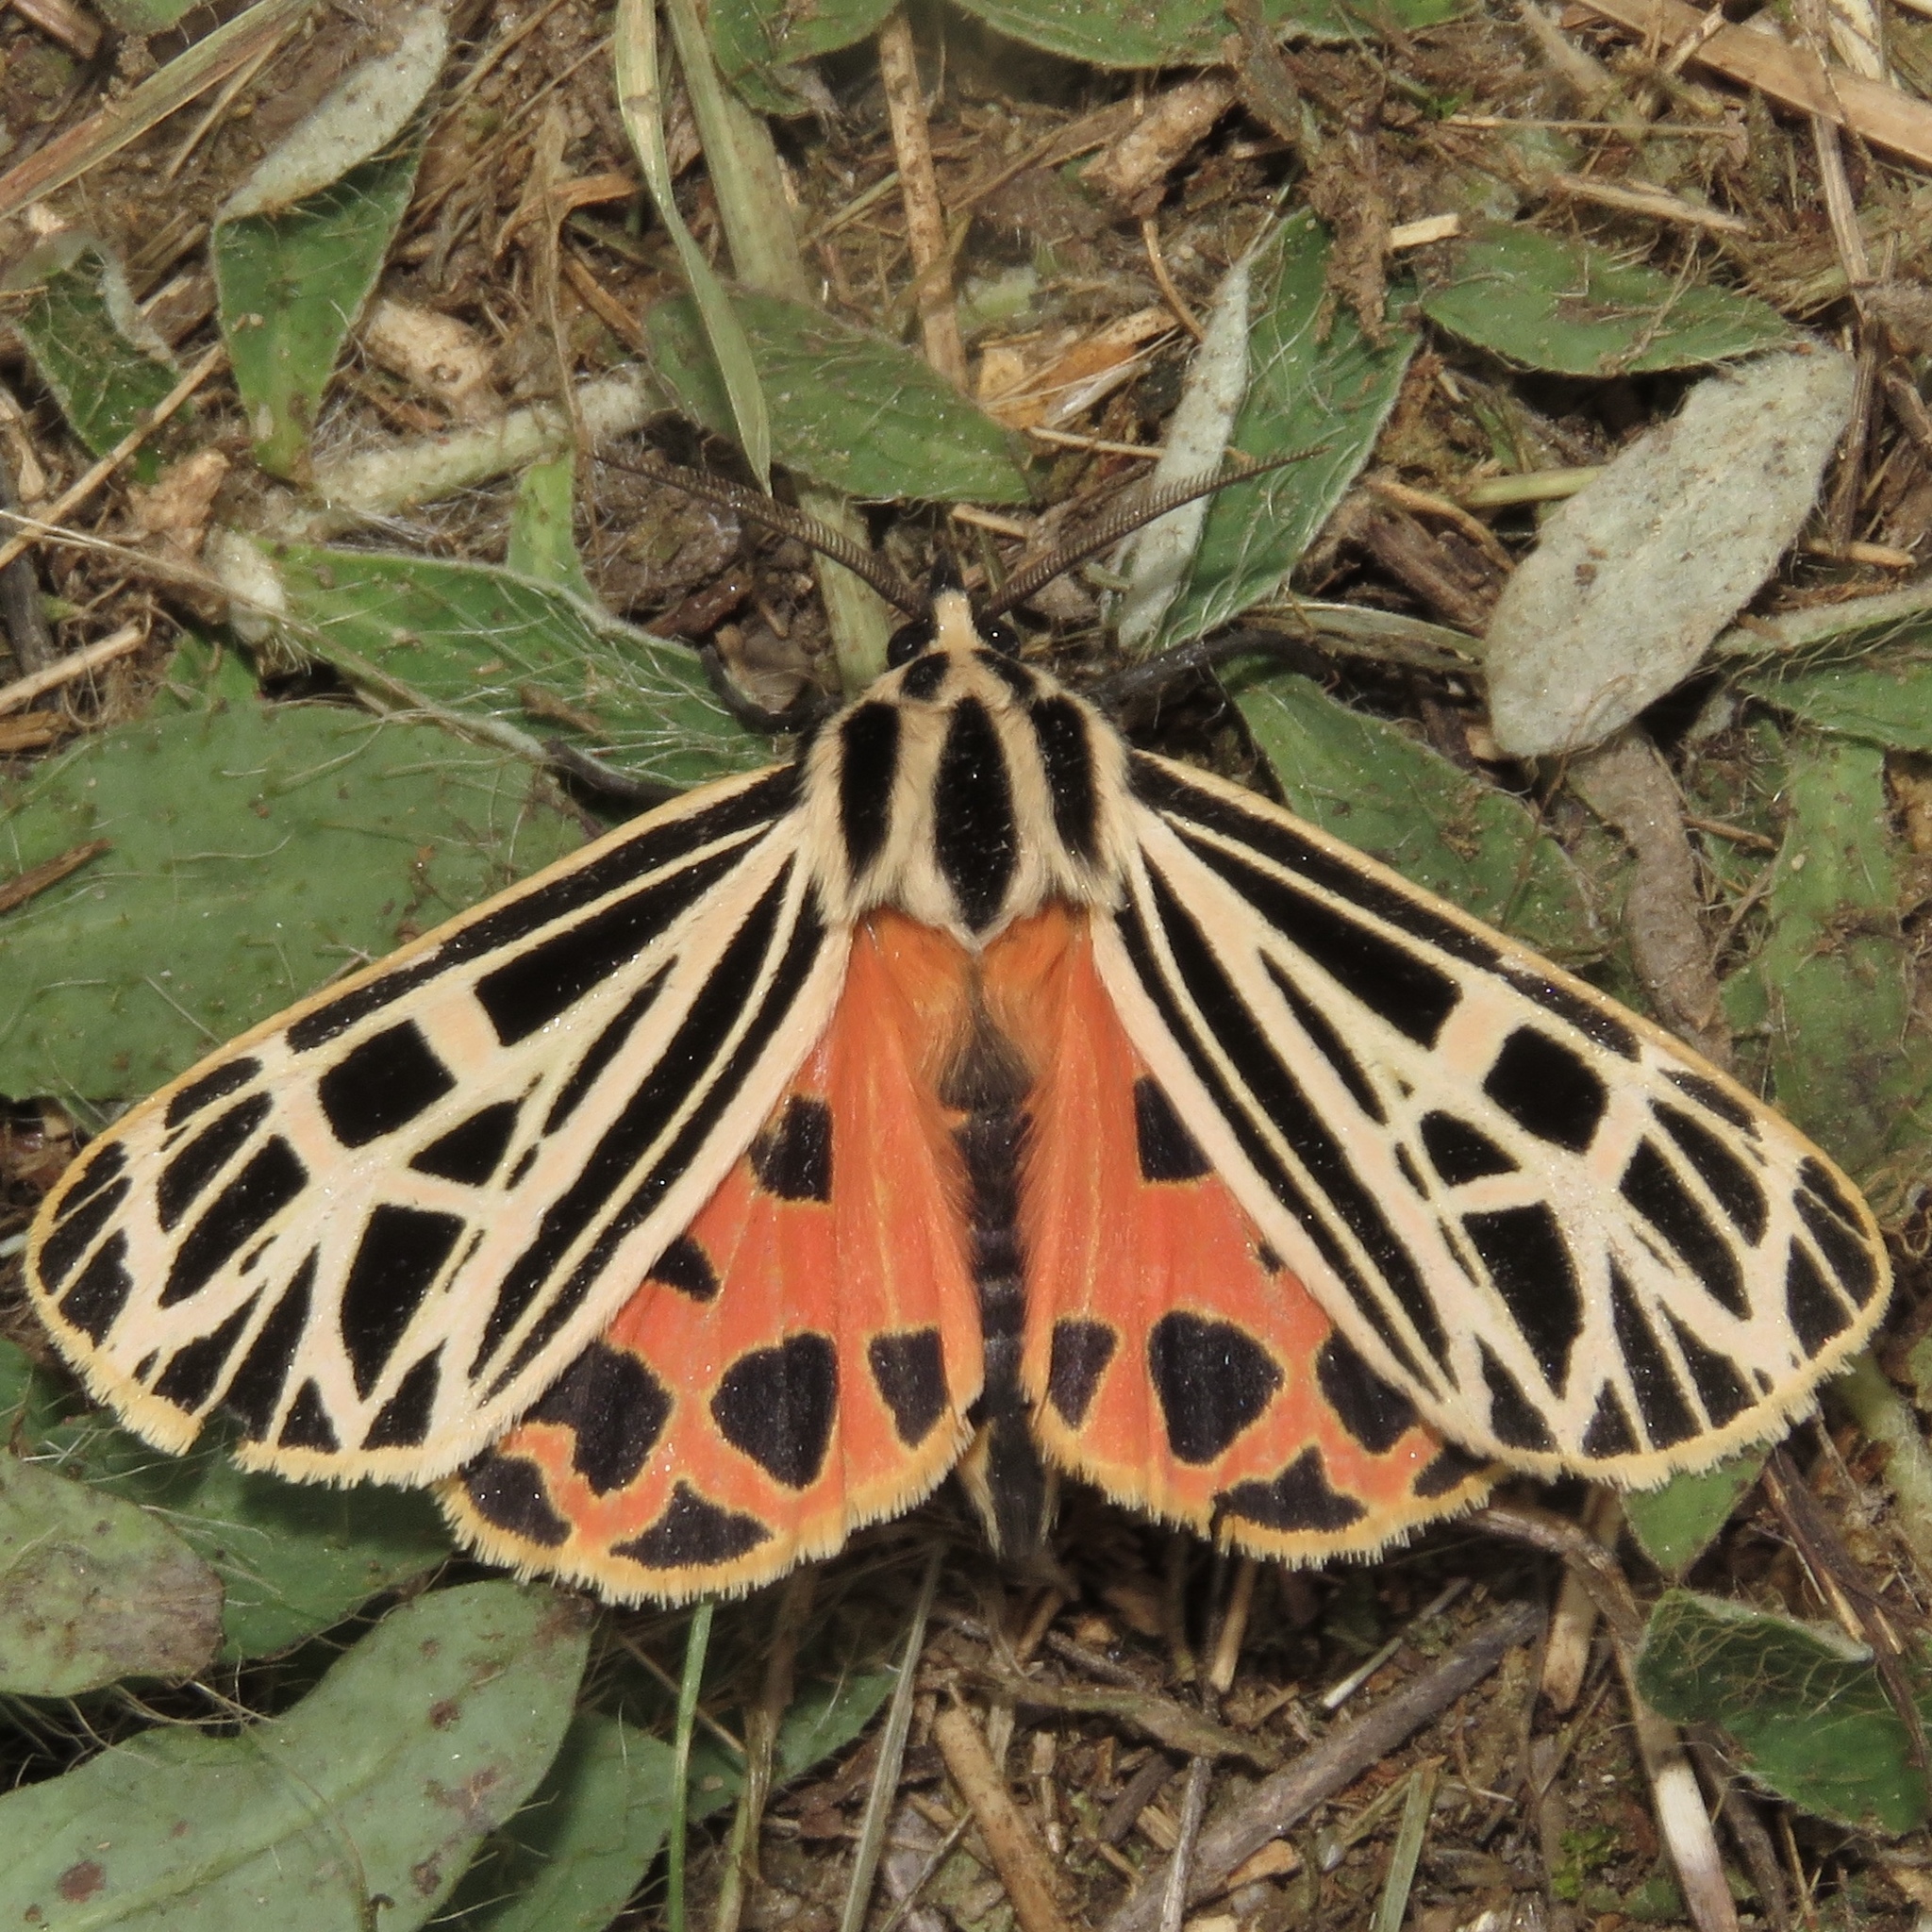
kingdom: Animalia
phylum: Arthropoda
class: Insecta
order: Lepidoptera
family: Erebidae
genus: Grammia
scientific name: Grammia virgo
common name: Virgin tiger moth
